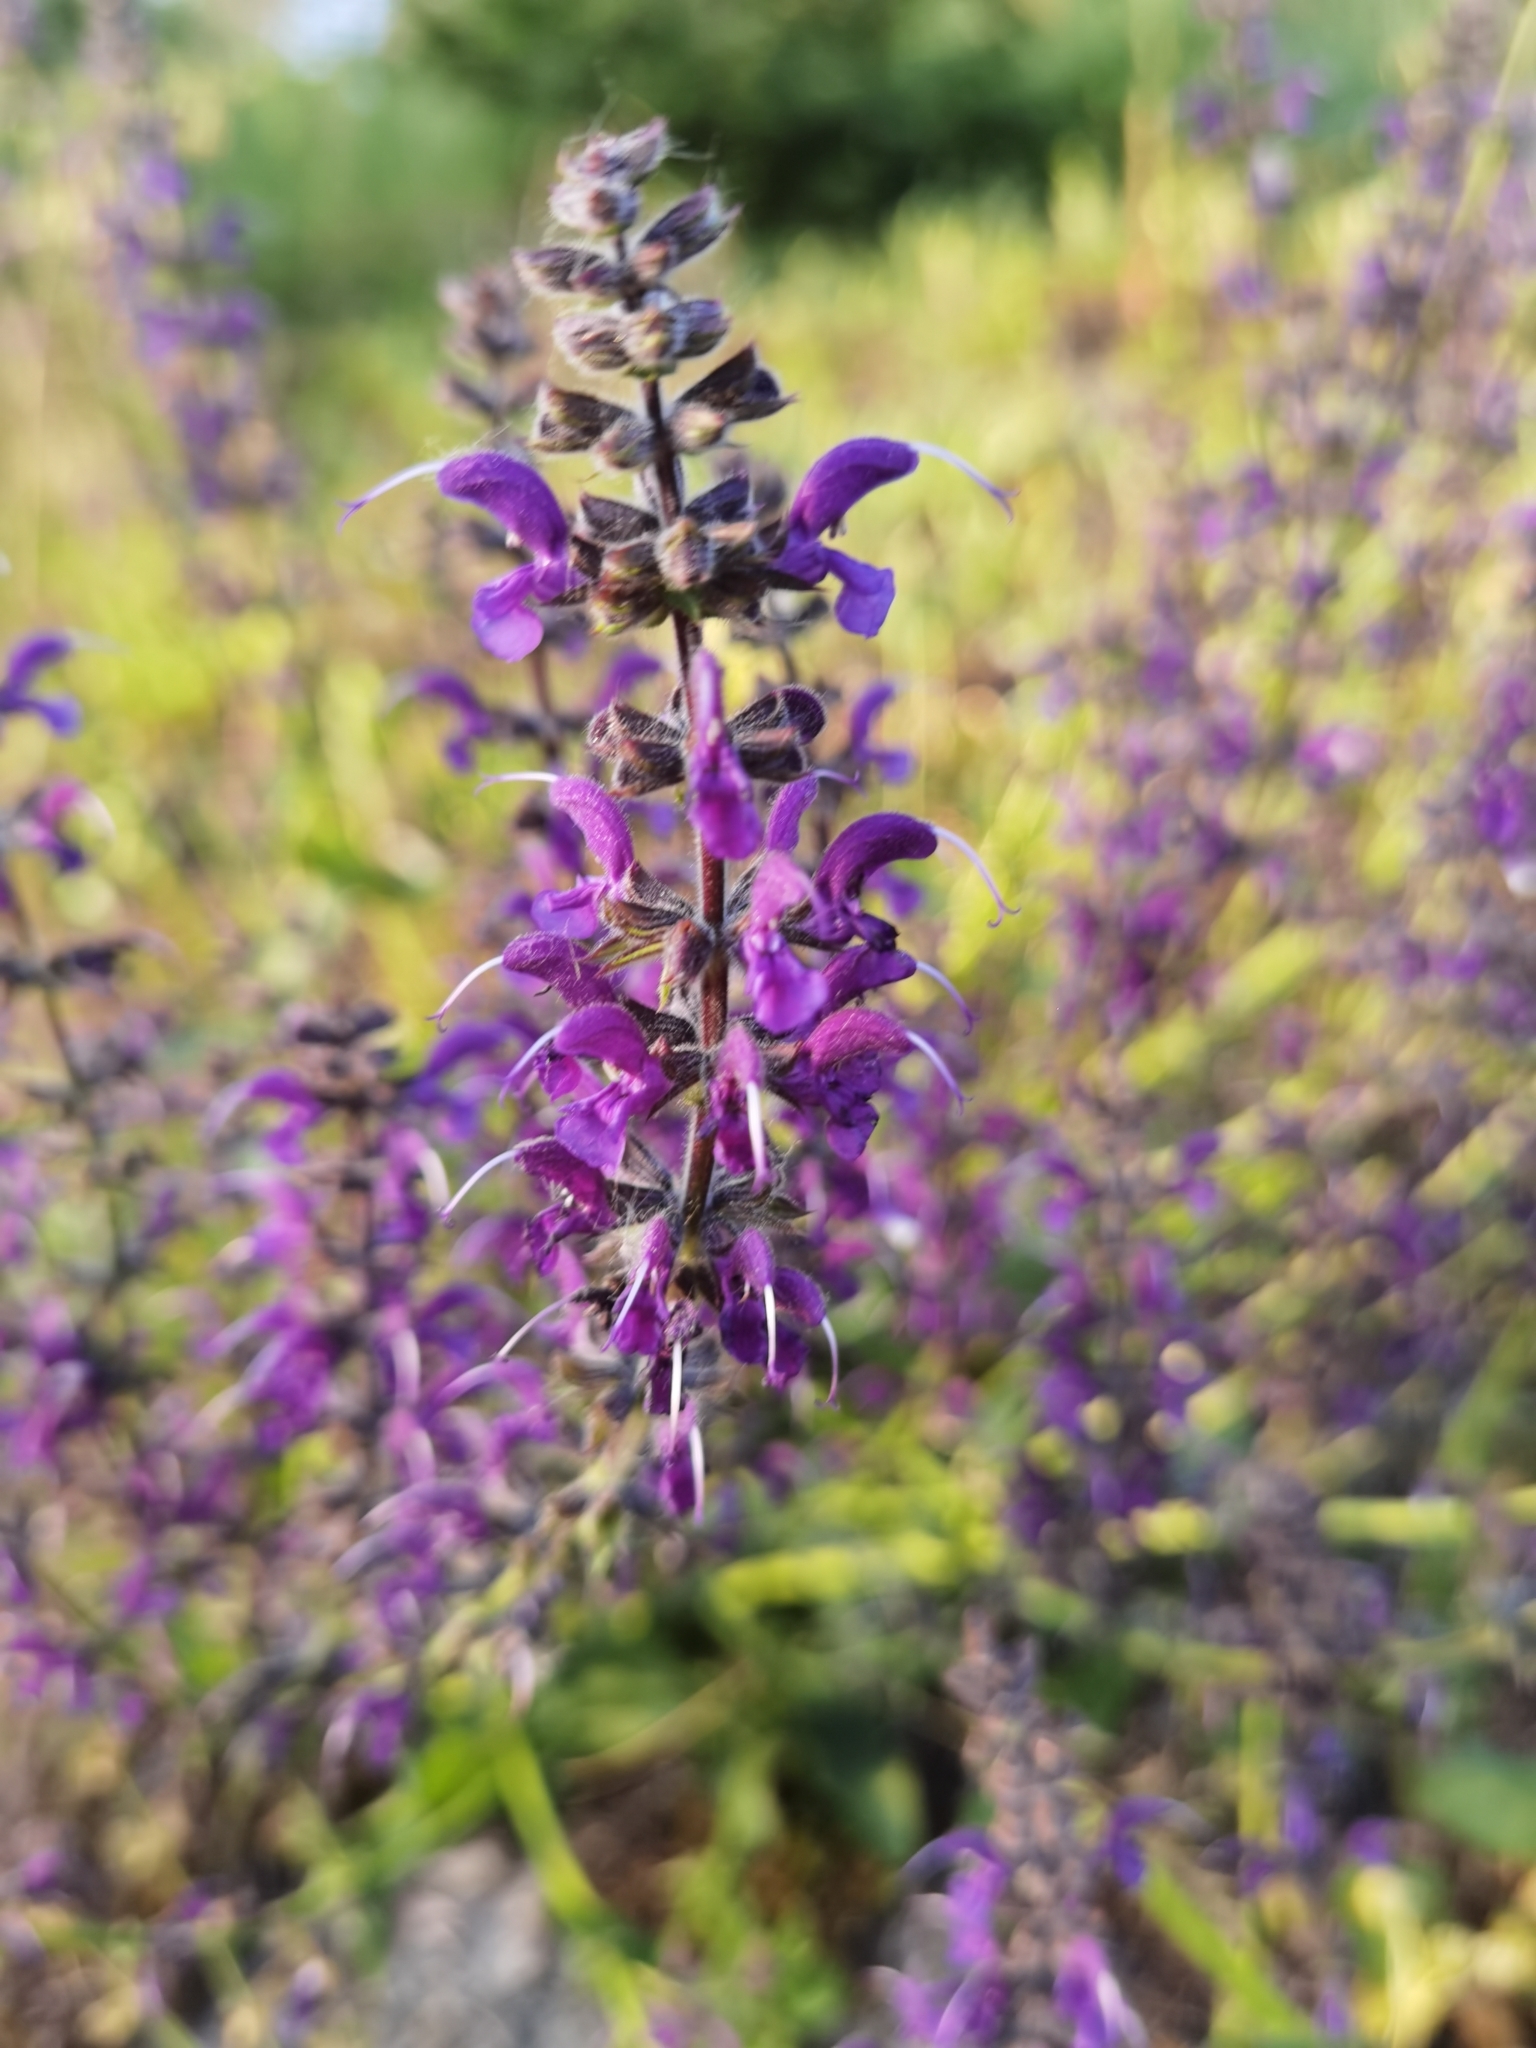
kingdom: Plantae
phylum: Tracheophyta
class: Magnoliopsida
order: Lamiales
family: Lamiaceae
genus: Salvia
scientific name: Salvia pratensis
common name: Meadow sage
